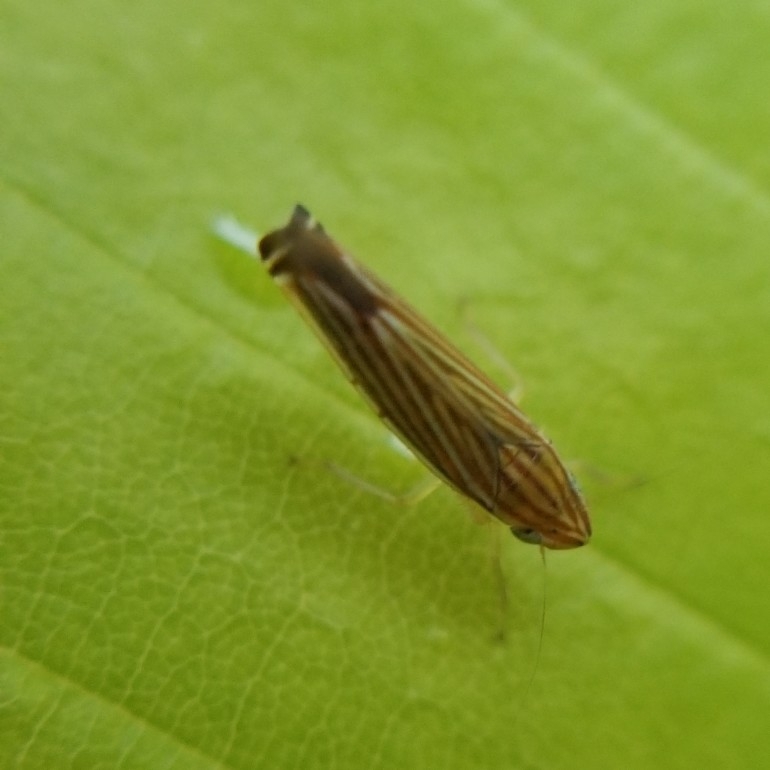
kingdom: Animalia
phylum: Arthropoda
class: Insecta
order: Hemiptera
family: Cicadellidae
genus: Sibovia
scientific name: Sibovia occatoria
